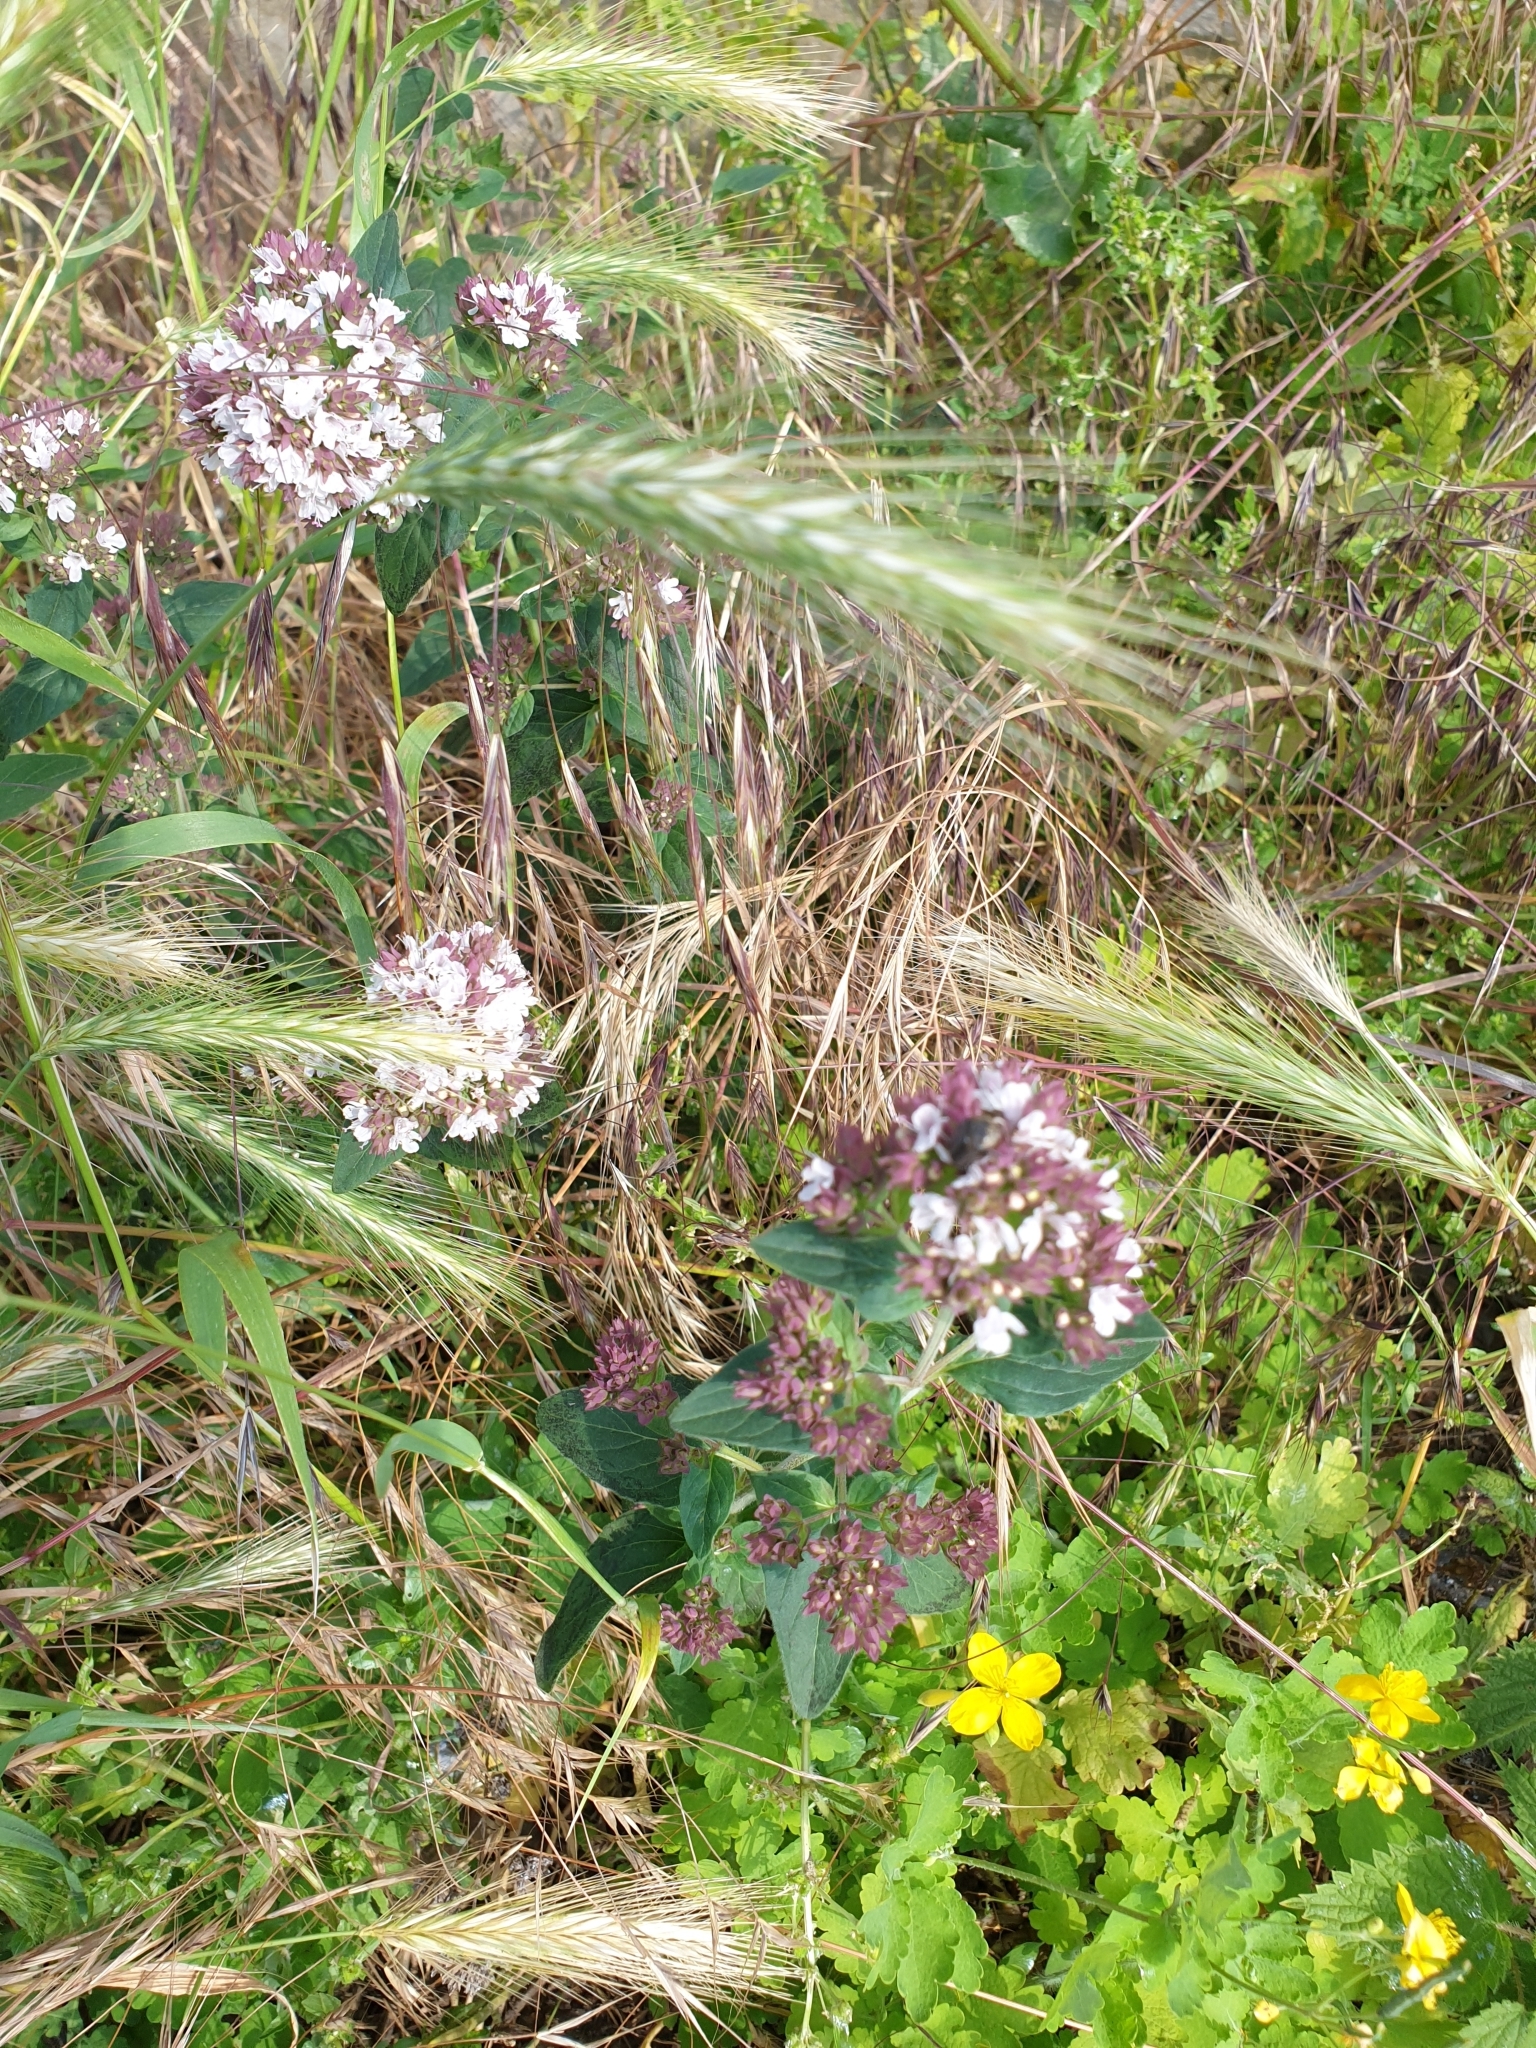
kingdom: Plantae
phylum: Tracheophyta
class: Magnoliopsida
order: Lamiales
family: Lamiaceae
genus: Origanum
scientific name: Origanum vulgare
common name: Wild marjoram
